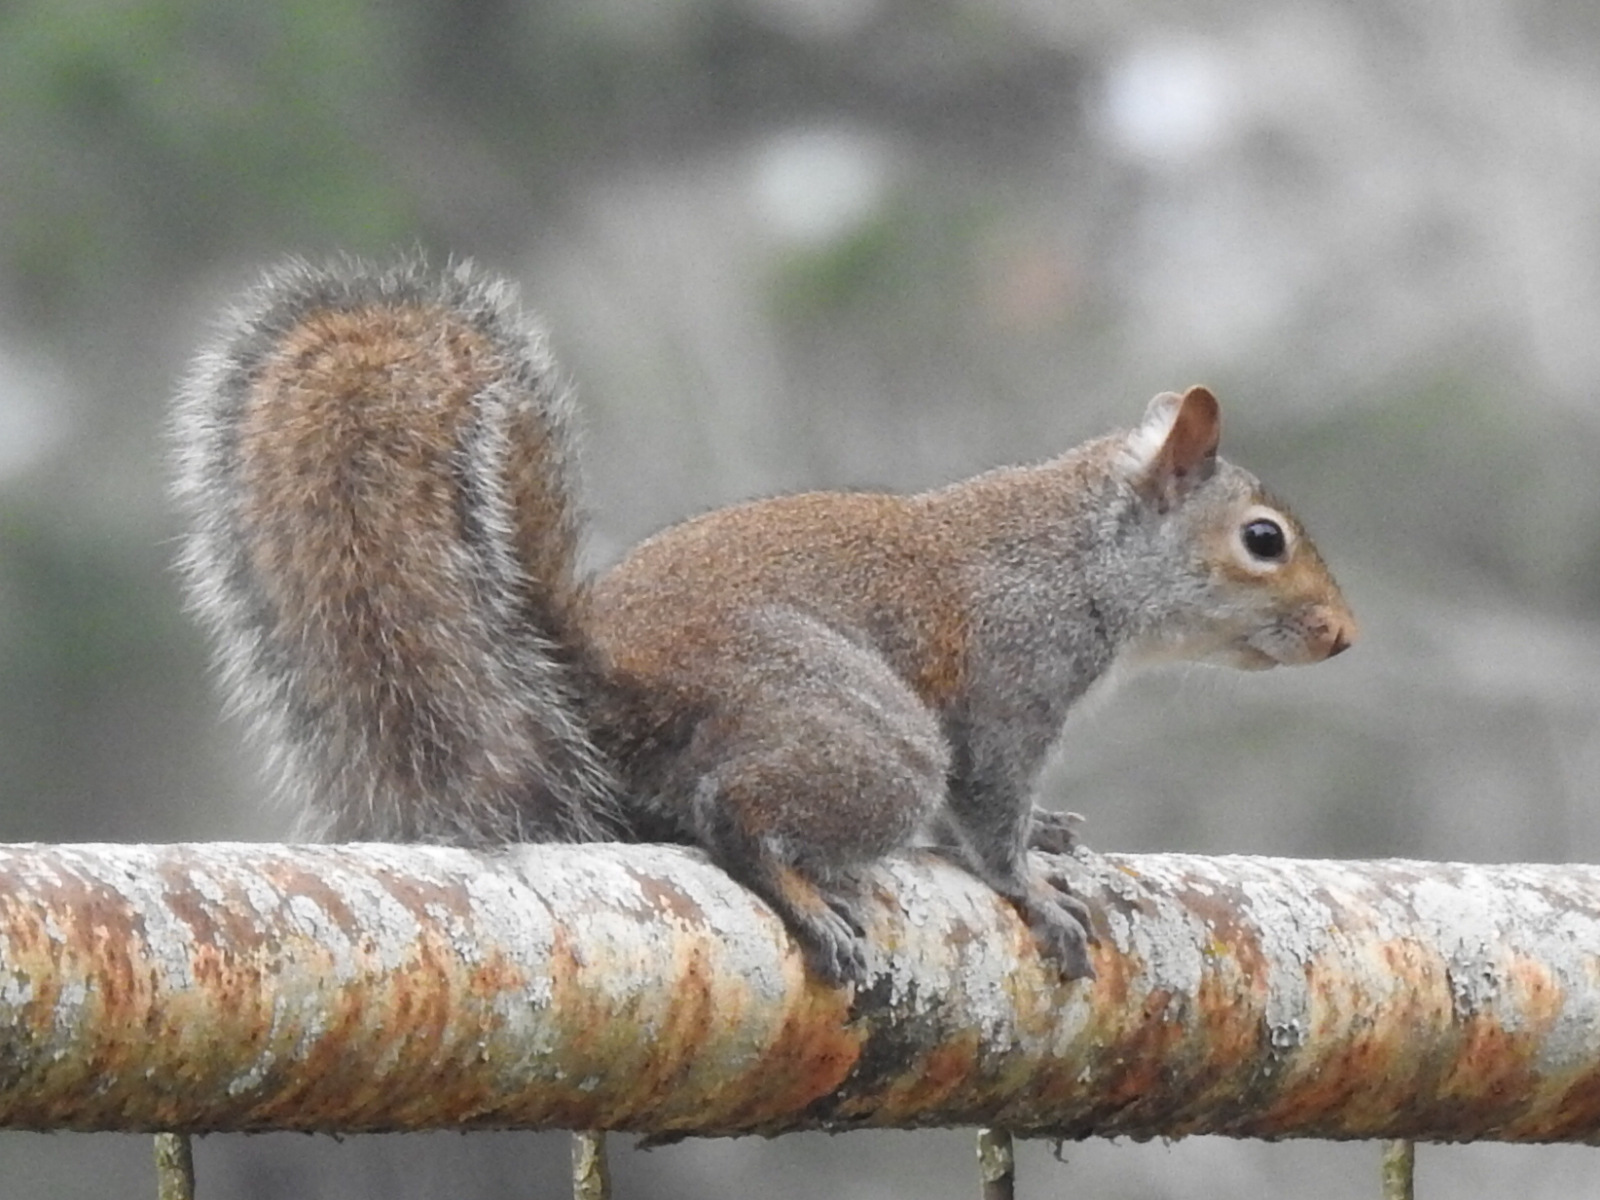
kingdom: Animalia
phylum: Chordata
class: Mammalia
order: Rodentia
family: Sciuridae
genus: Sciurus
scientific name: Sciurus carolinensis
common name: Eastern gray squirrel
